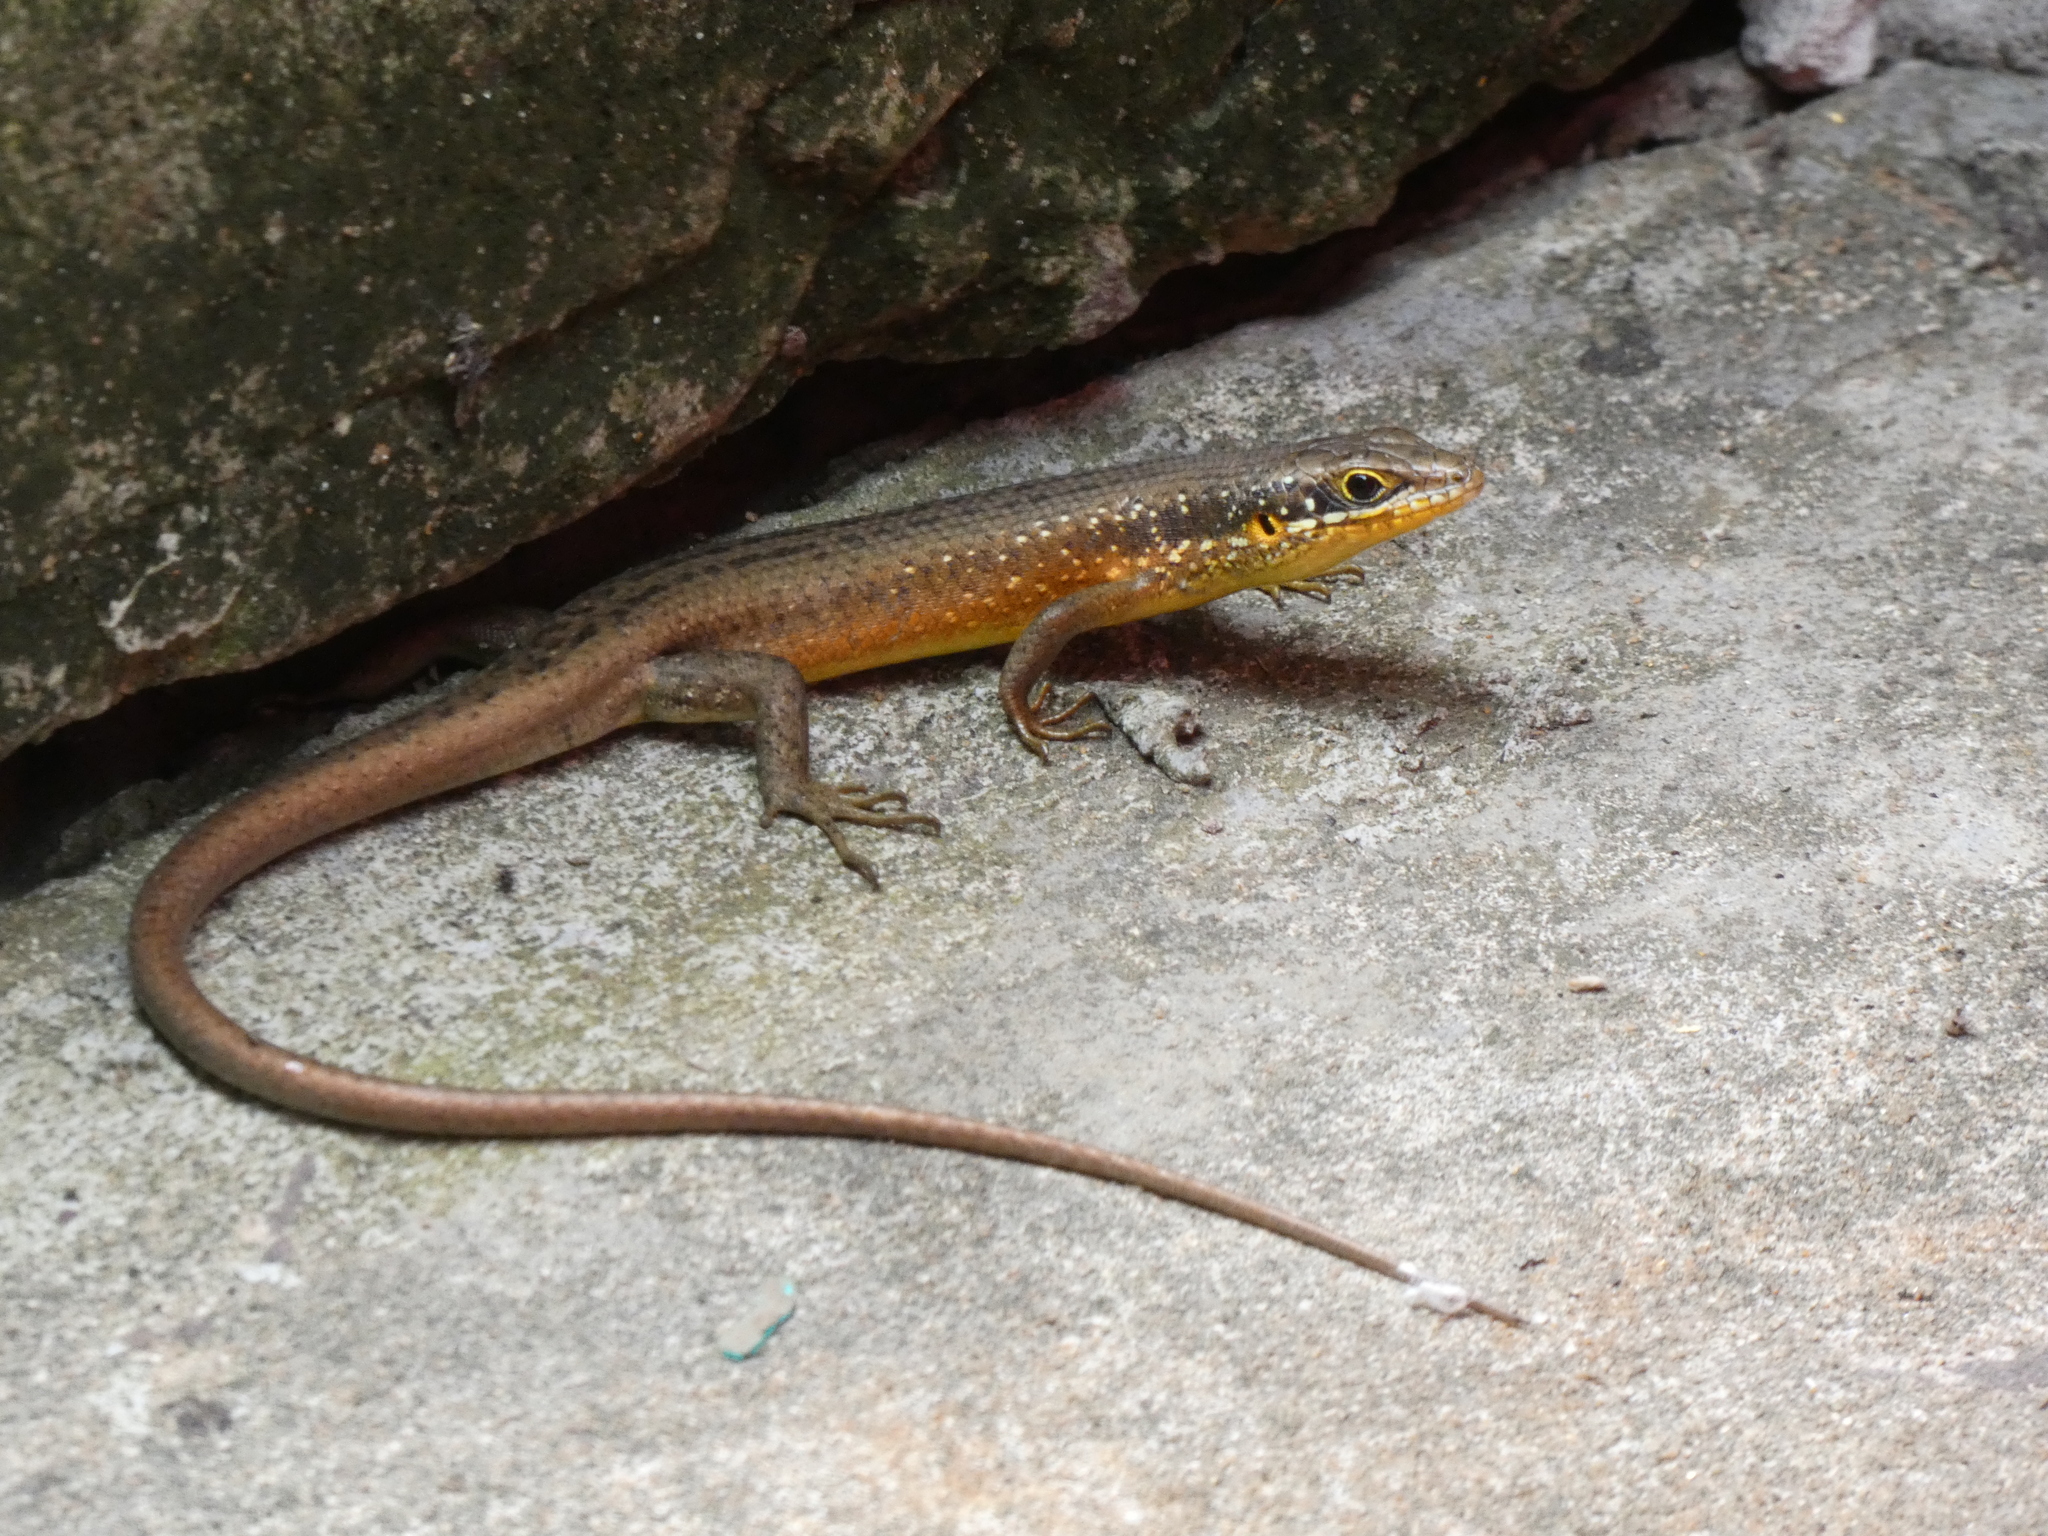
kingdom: Animalia
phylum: Chordata
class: Squamata
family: Scincidae
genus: Trachylepis
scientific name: Trachylepis maculilabris
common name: Speckle-lipped mabuya
